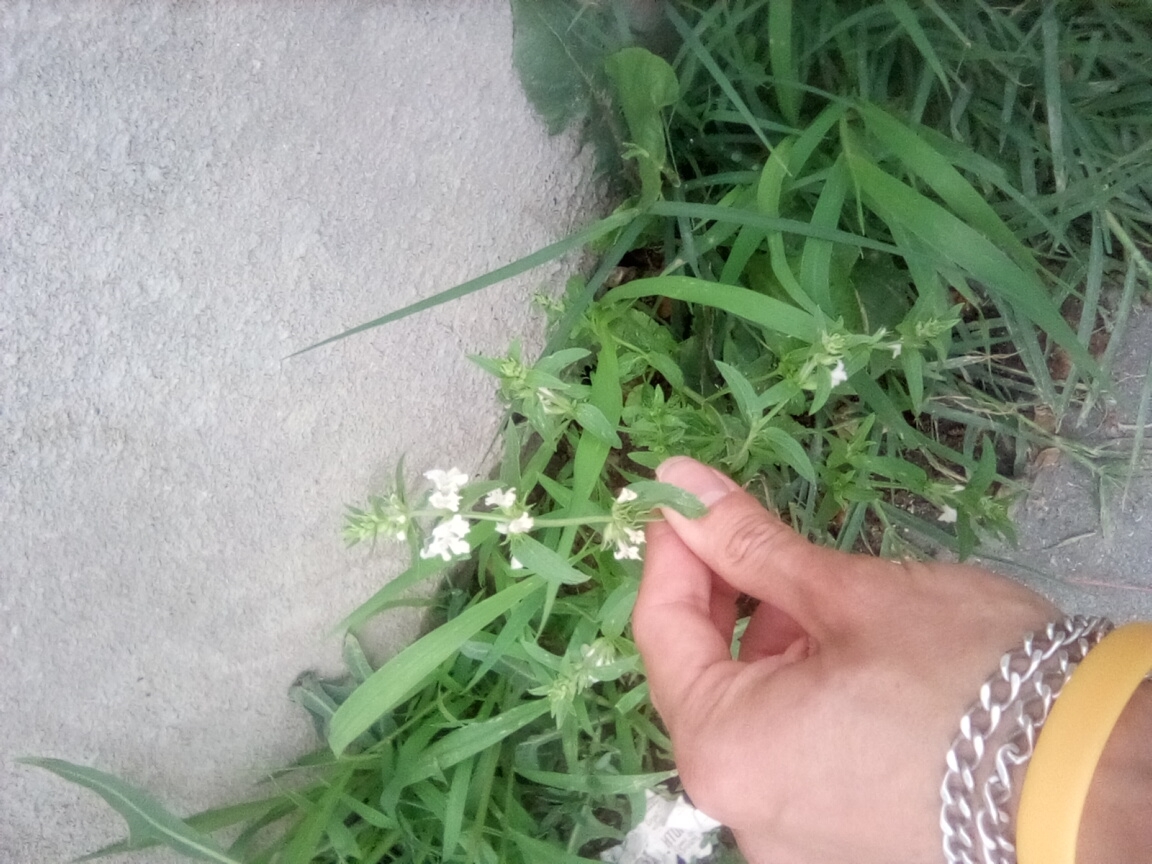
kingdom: Plantae
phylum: Tracheophyta
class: Magnoliopsida
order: Lamiales
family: Lamiaceae
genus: Stachys
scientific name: Stachys annua
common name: Annual yellow-woundwort
